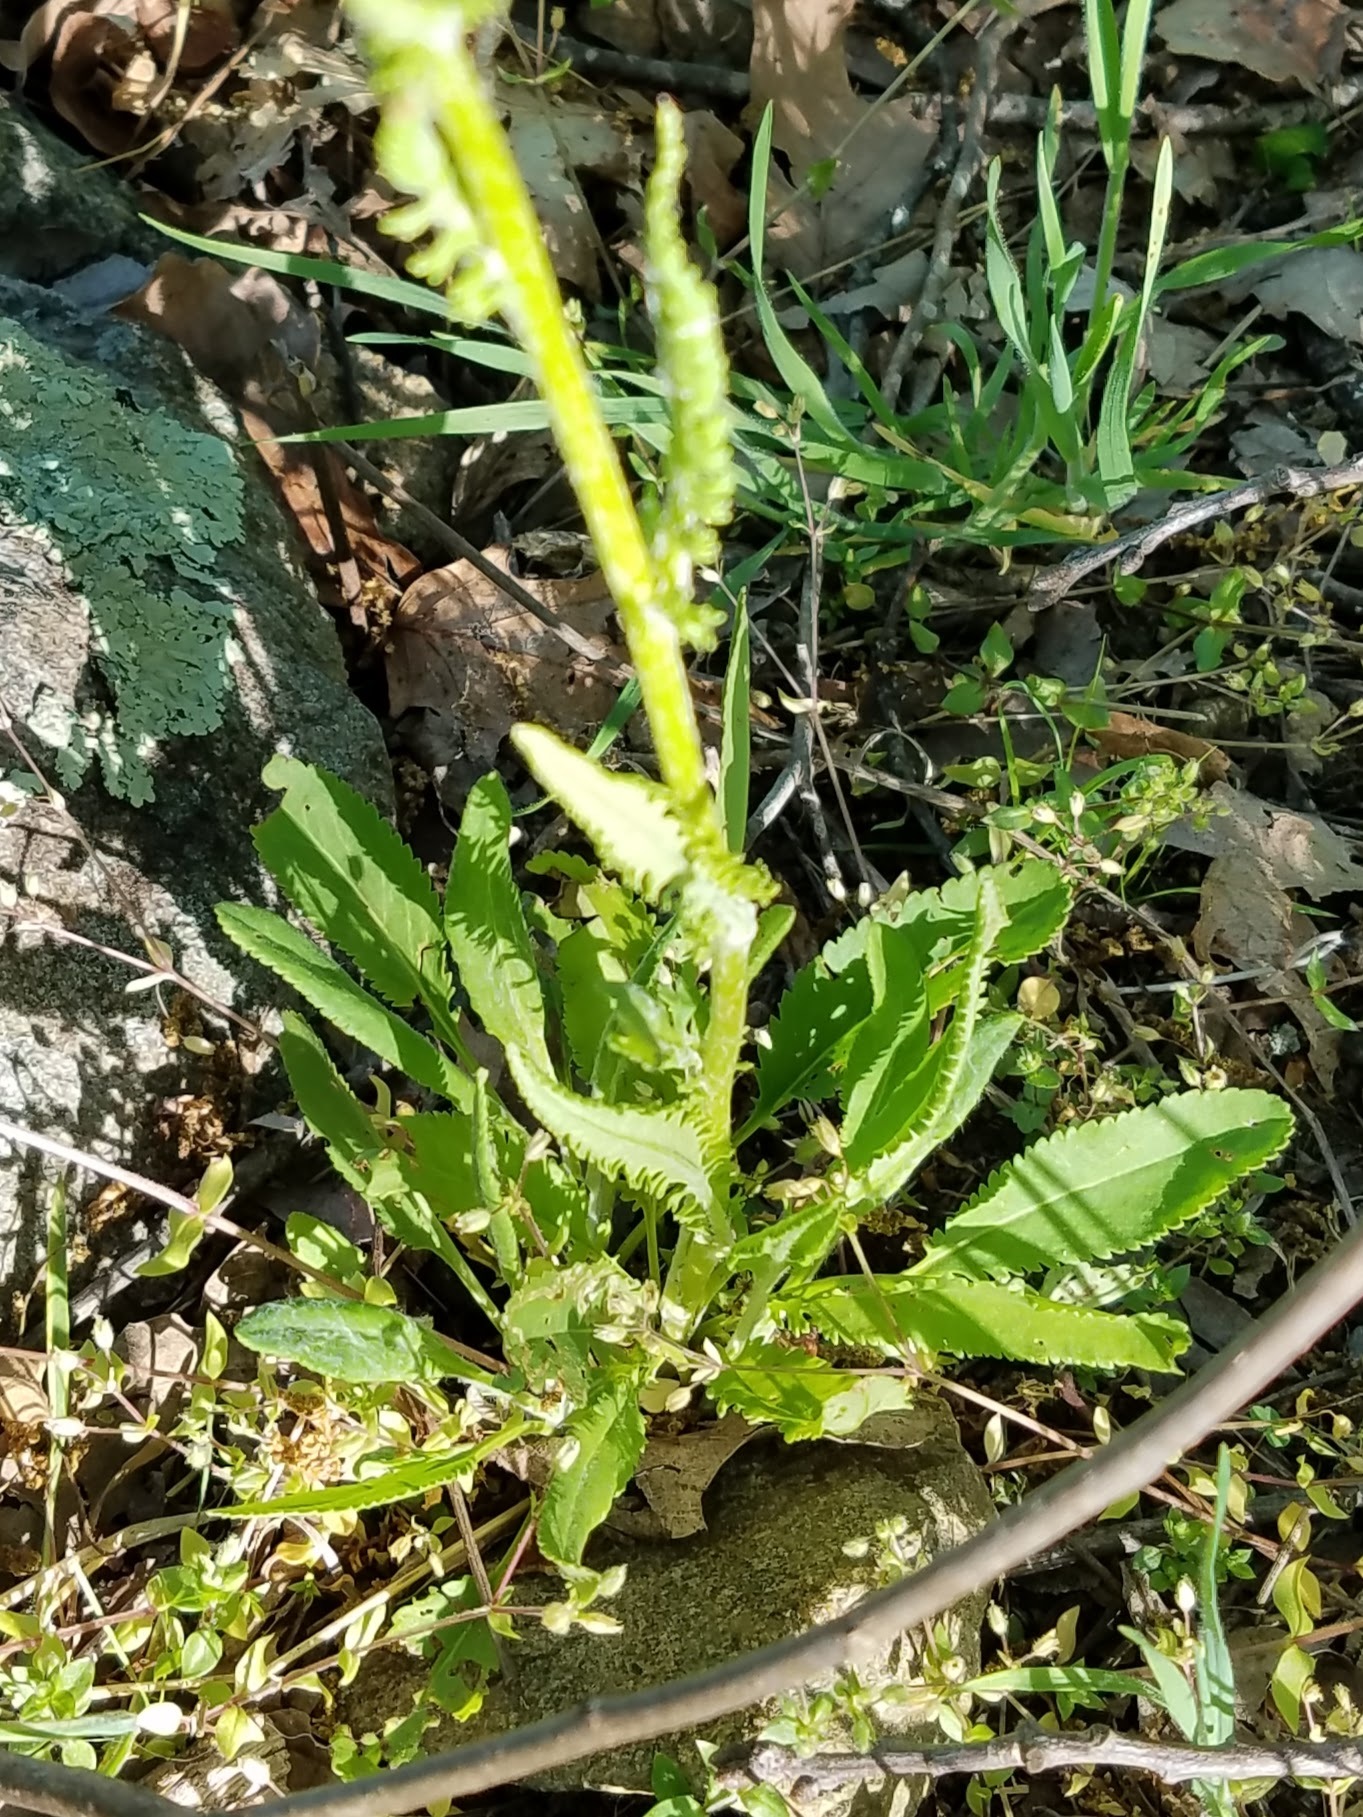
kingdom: Plantae
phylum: Tracheophyta
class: Magnoliopsida
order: Asterales
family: Asteraceae
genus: Packera
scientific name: Packera anonyma
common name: Small ragwort
